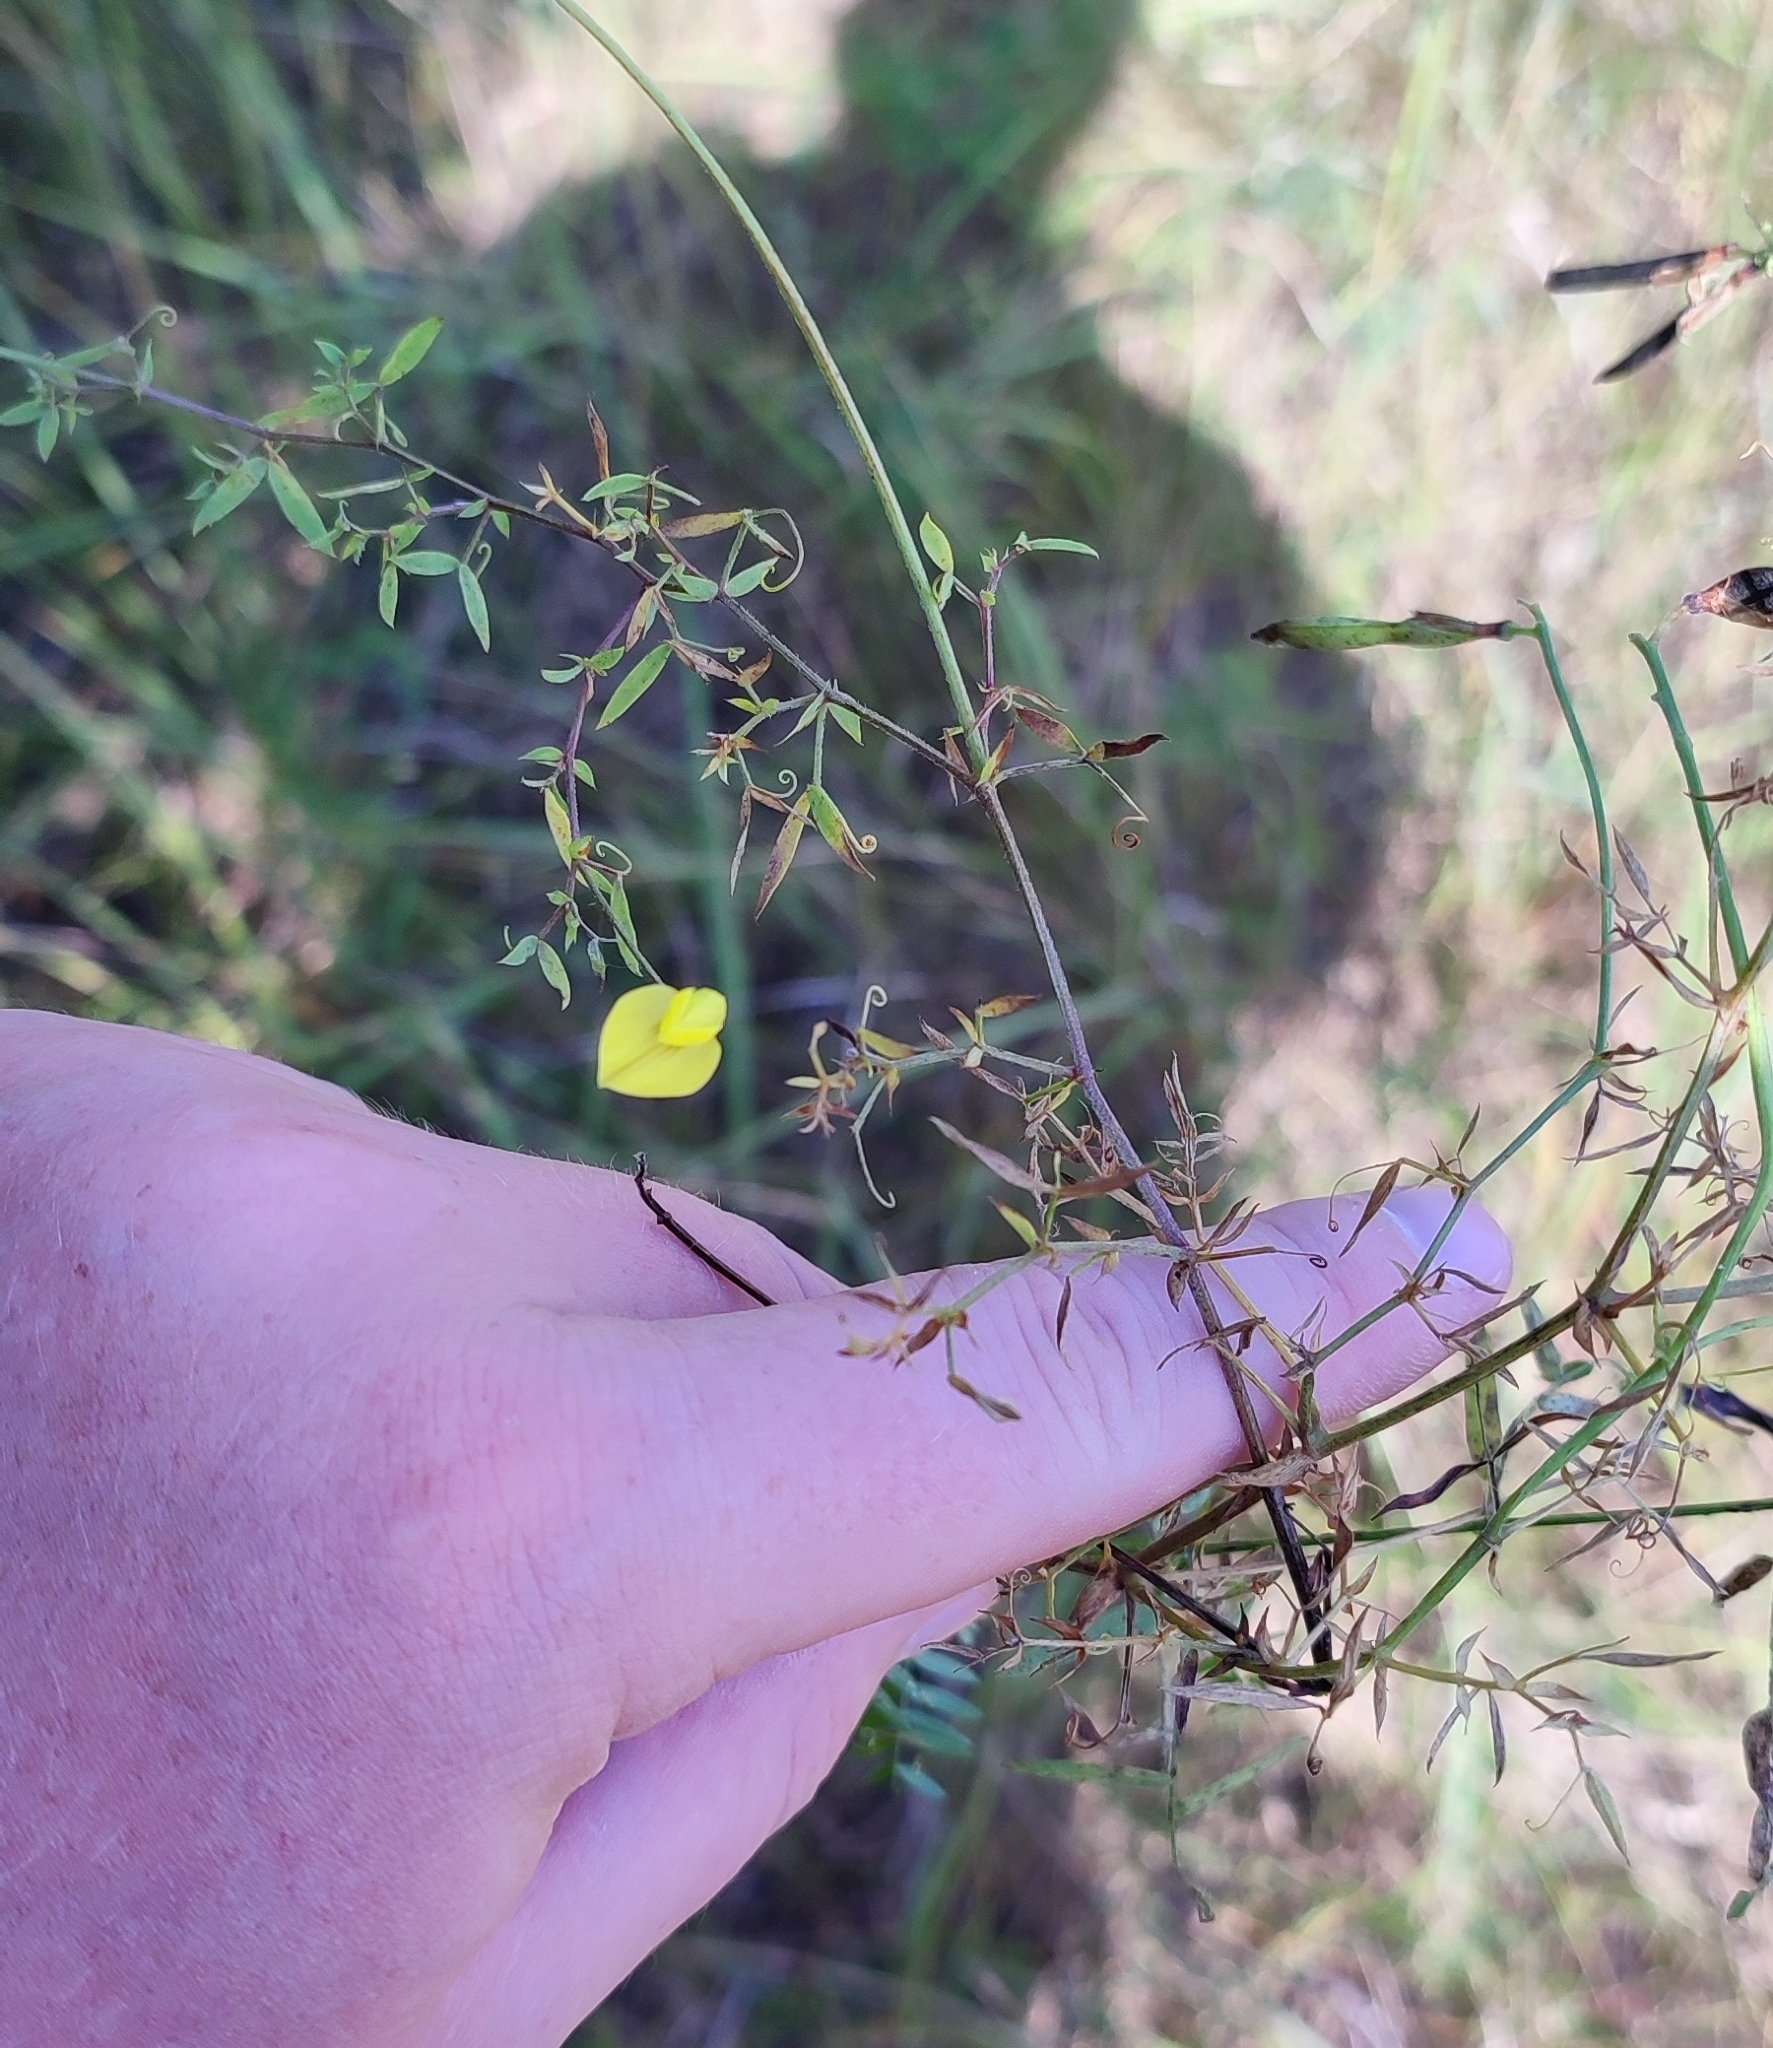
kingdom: Plantae
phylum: Tracheophyta
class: Magnoliopsida
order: Fabales
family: Fabaceae
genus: Lathyrus
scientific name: Lathyrus pratensis
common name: Meadow vetchling
